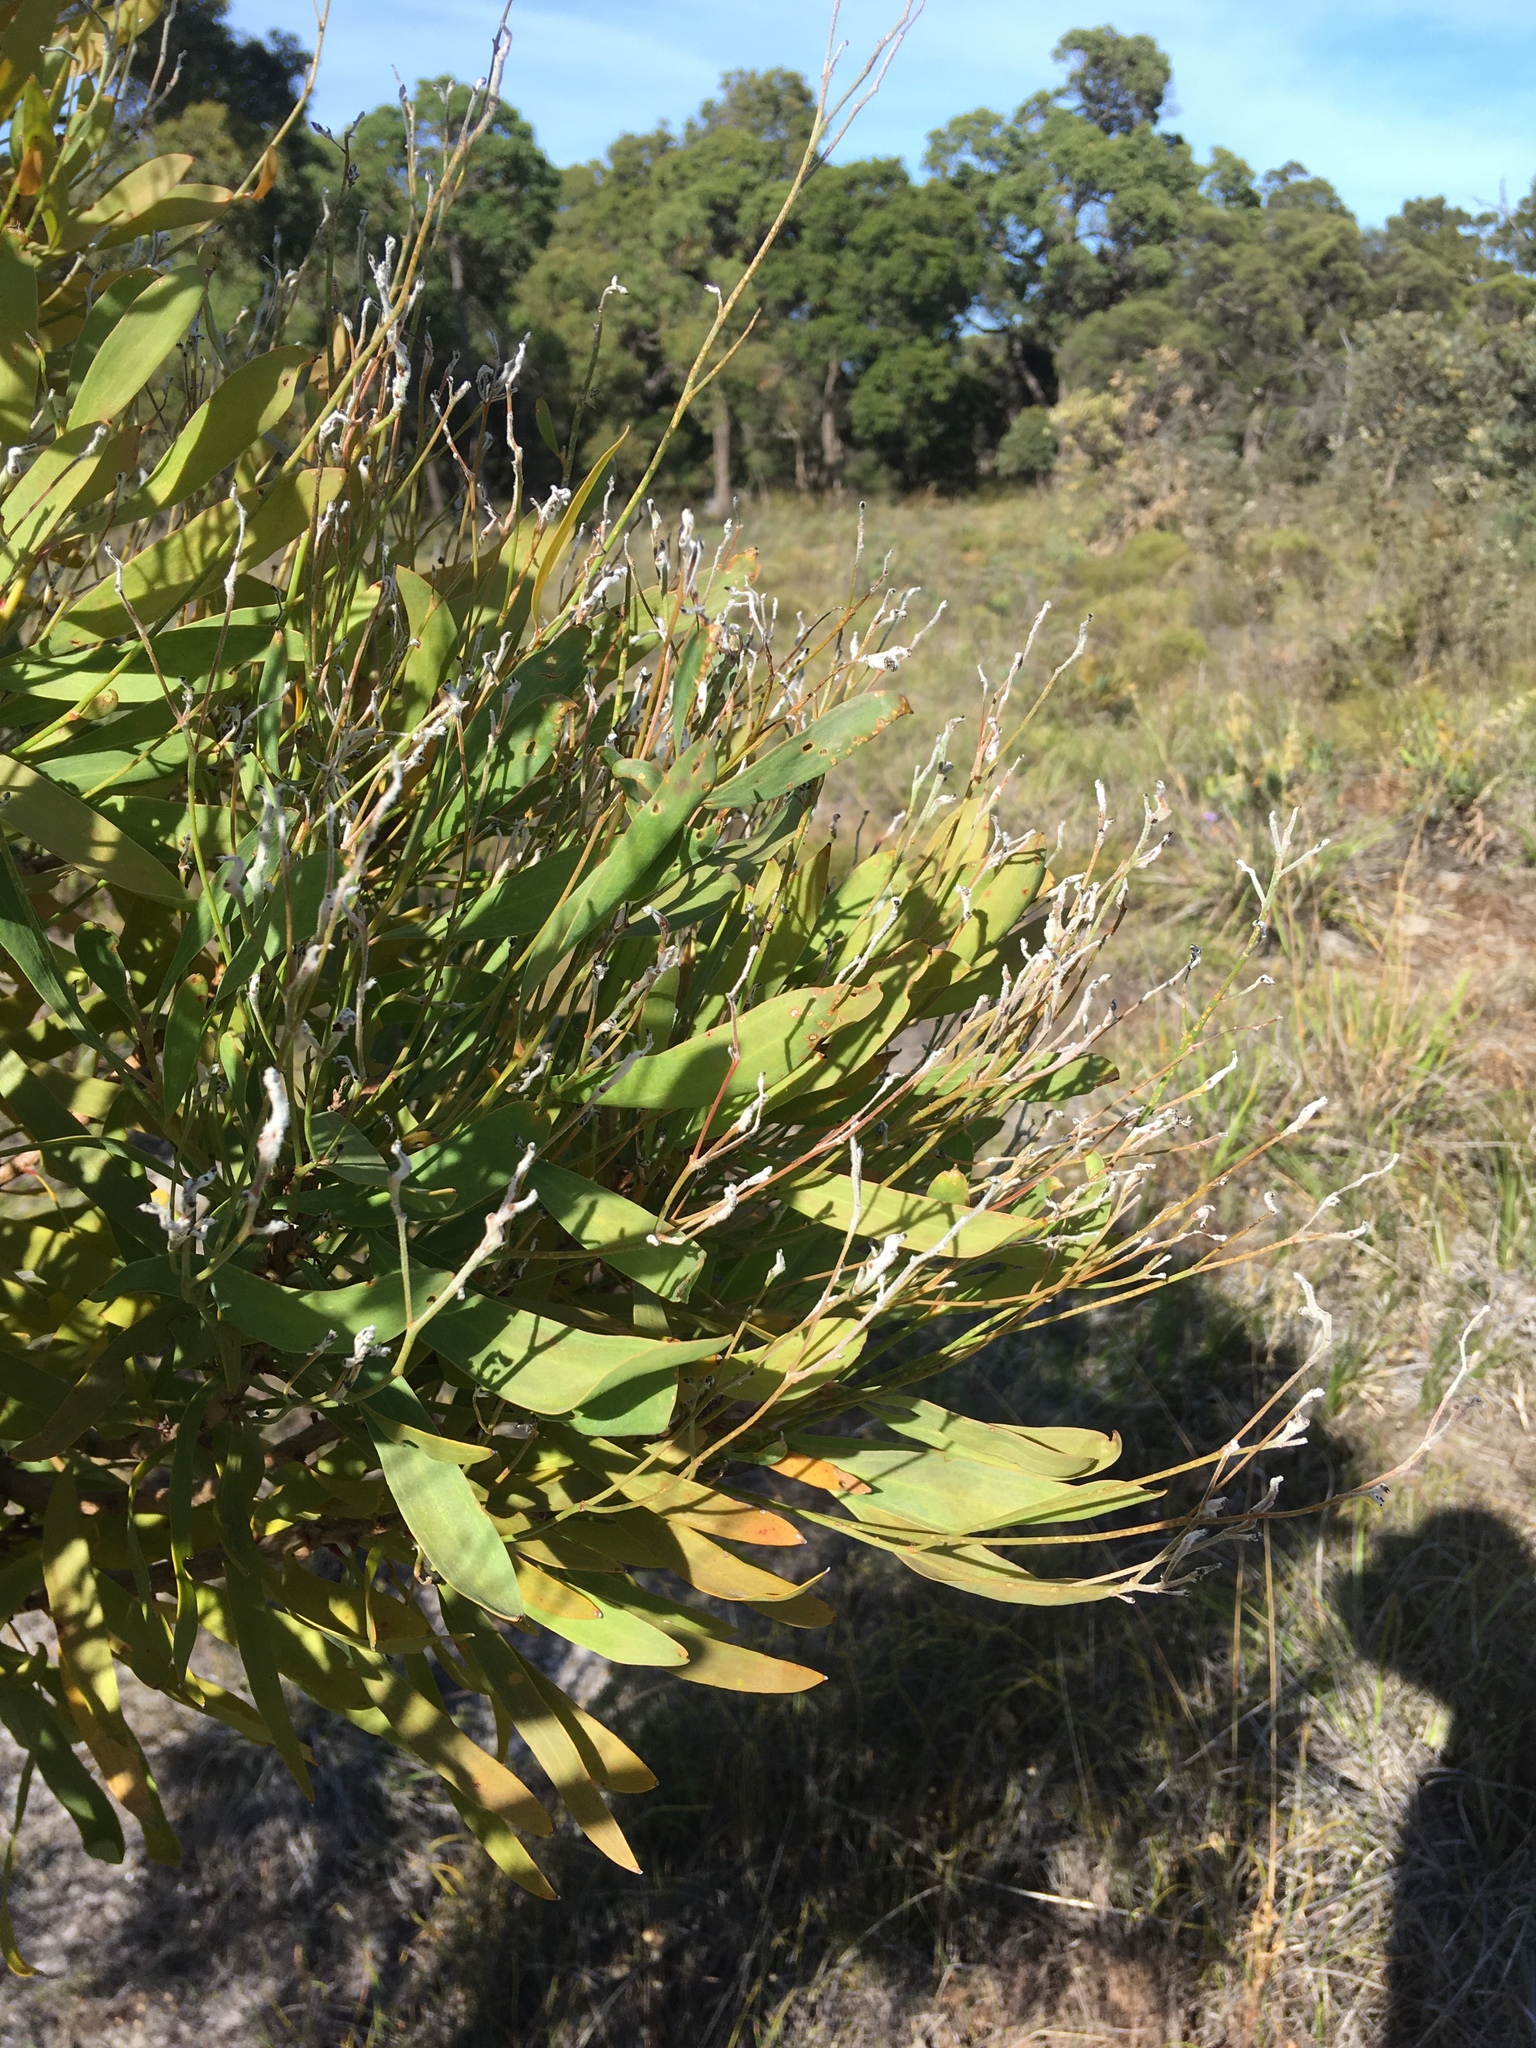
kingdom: Plantae
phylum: Tracheophyta
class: Magnoliopsida
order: Proteales
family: Proteaceae
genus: Conospermum
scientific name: Conospermum triplinervium
